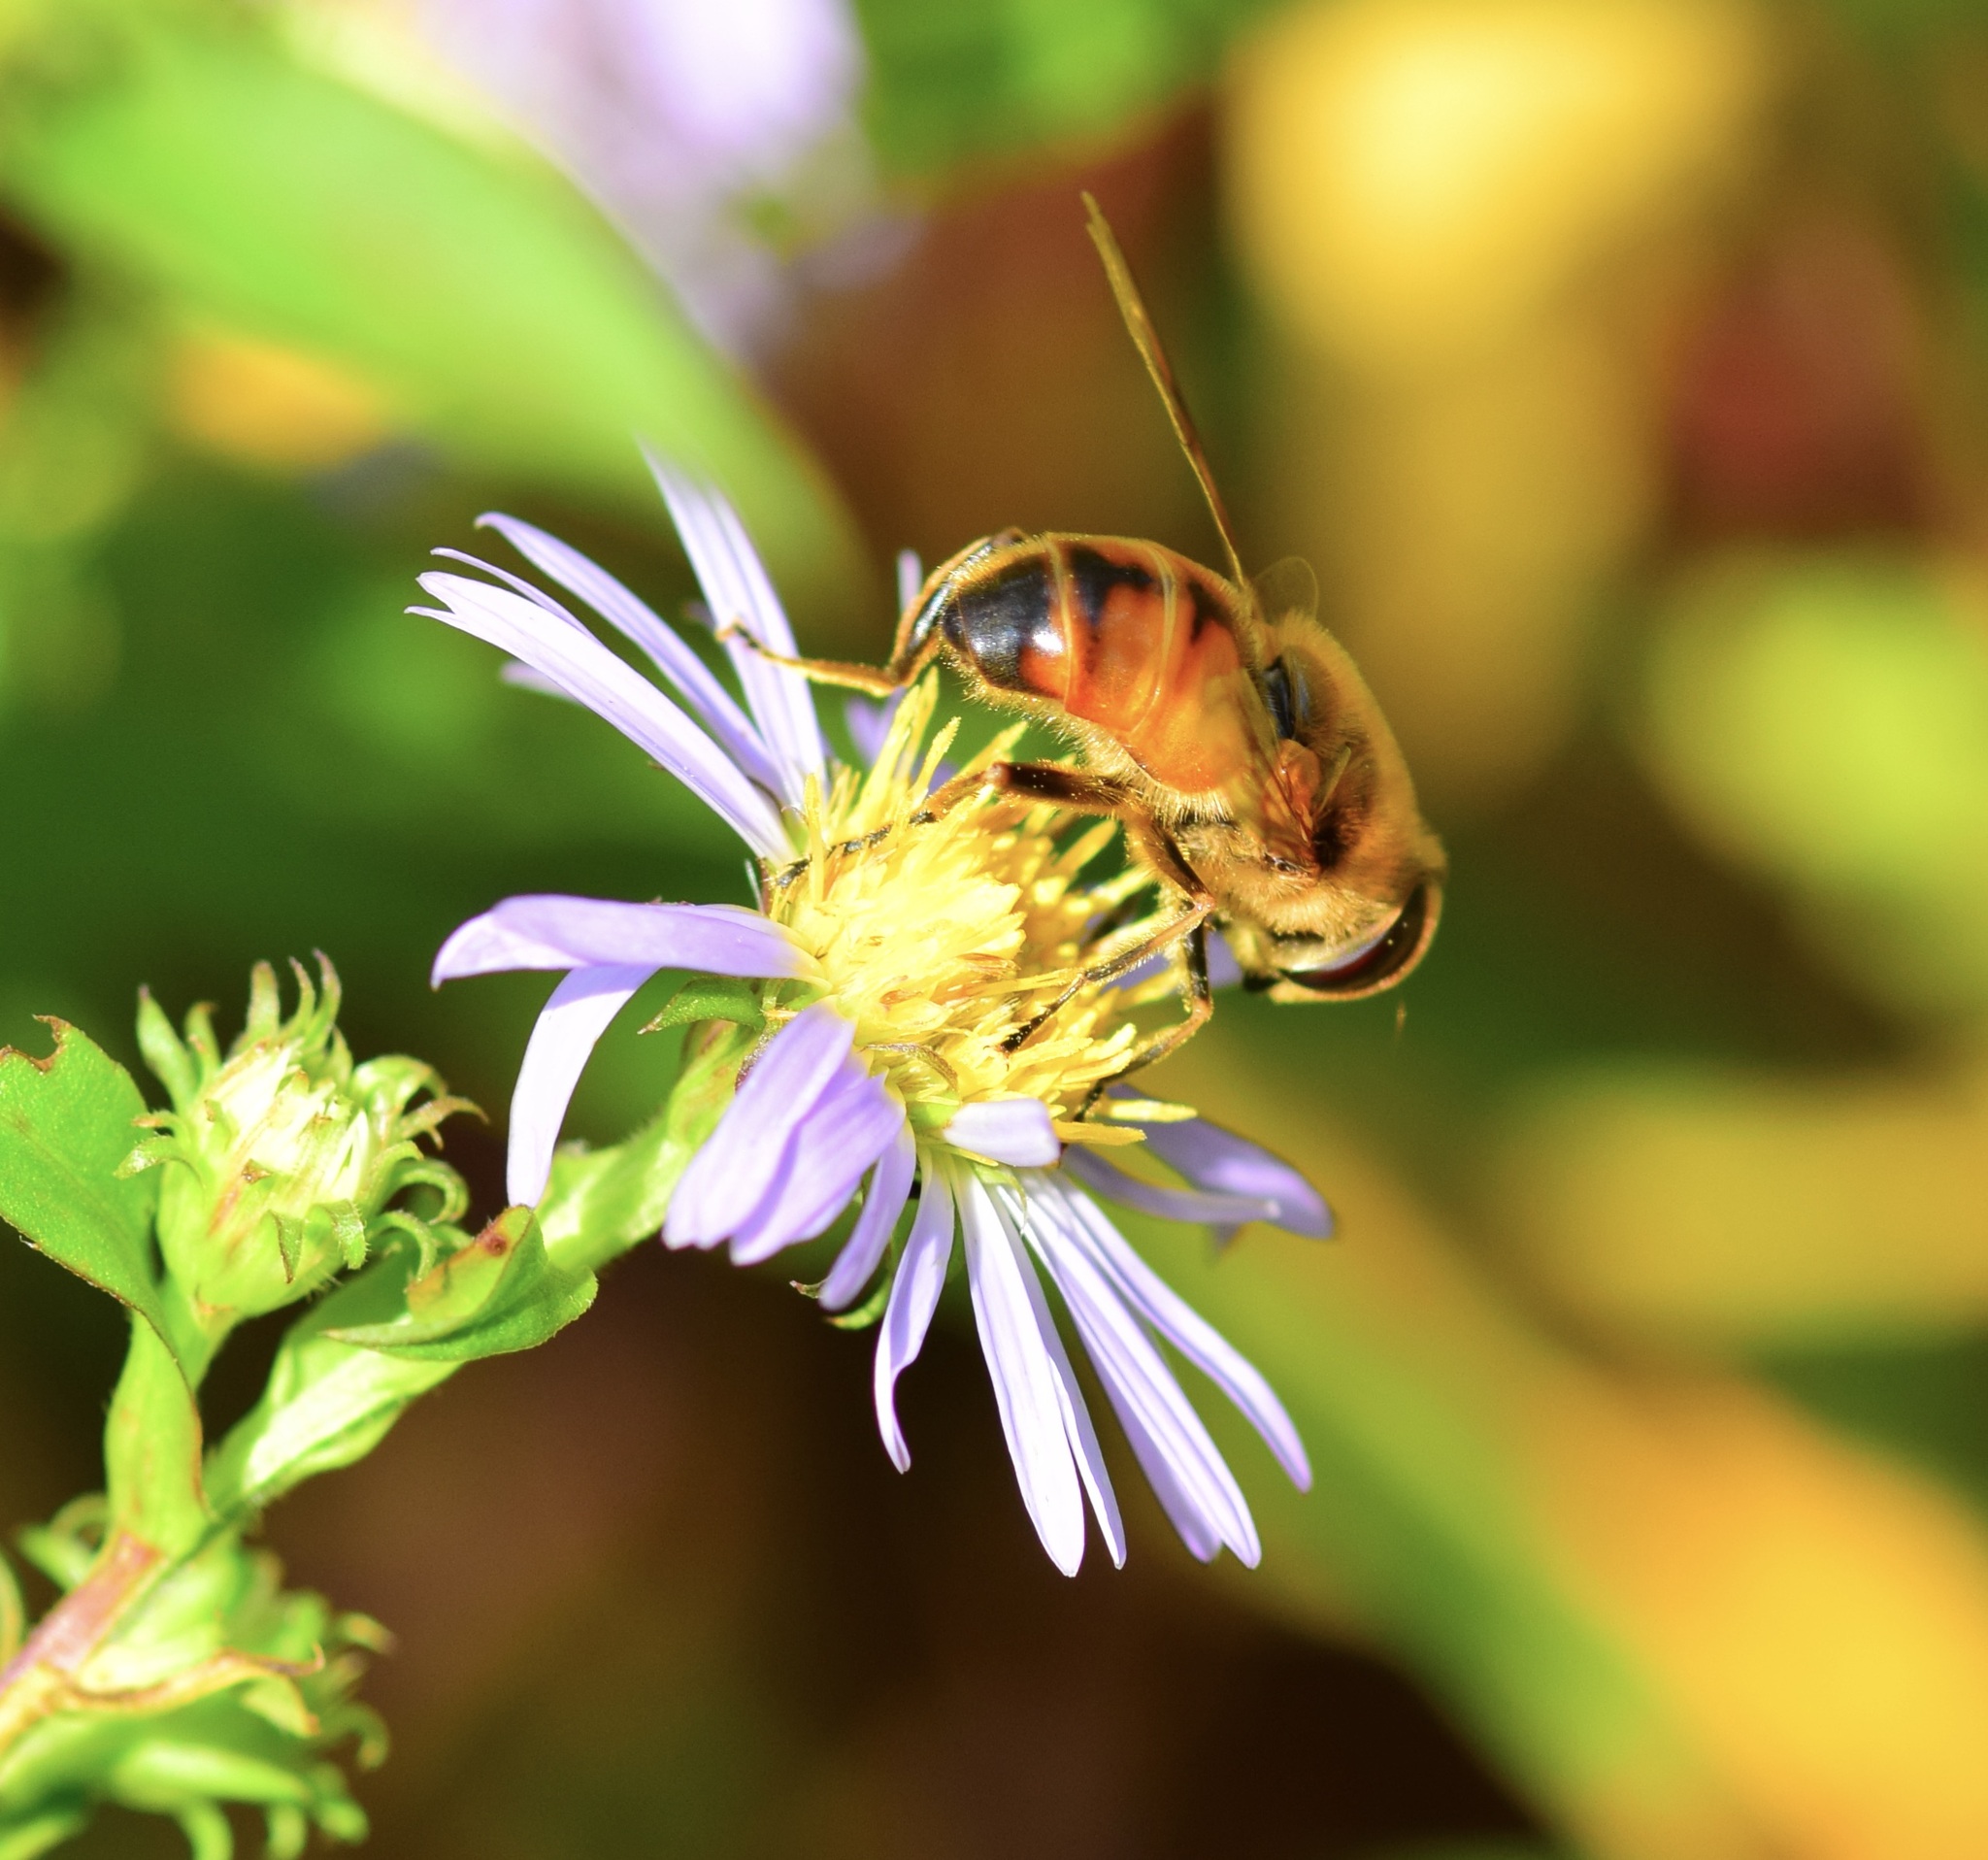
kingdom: Animalia
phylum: Arthropoda
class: Insecta
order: Diptera
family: Syrphidae
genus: Eristalis
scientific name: Eristalis tenax
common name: Drone fly
